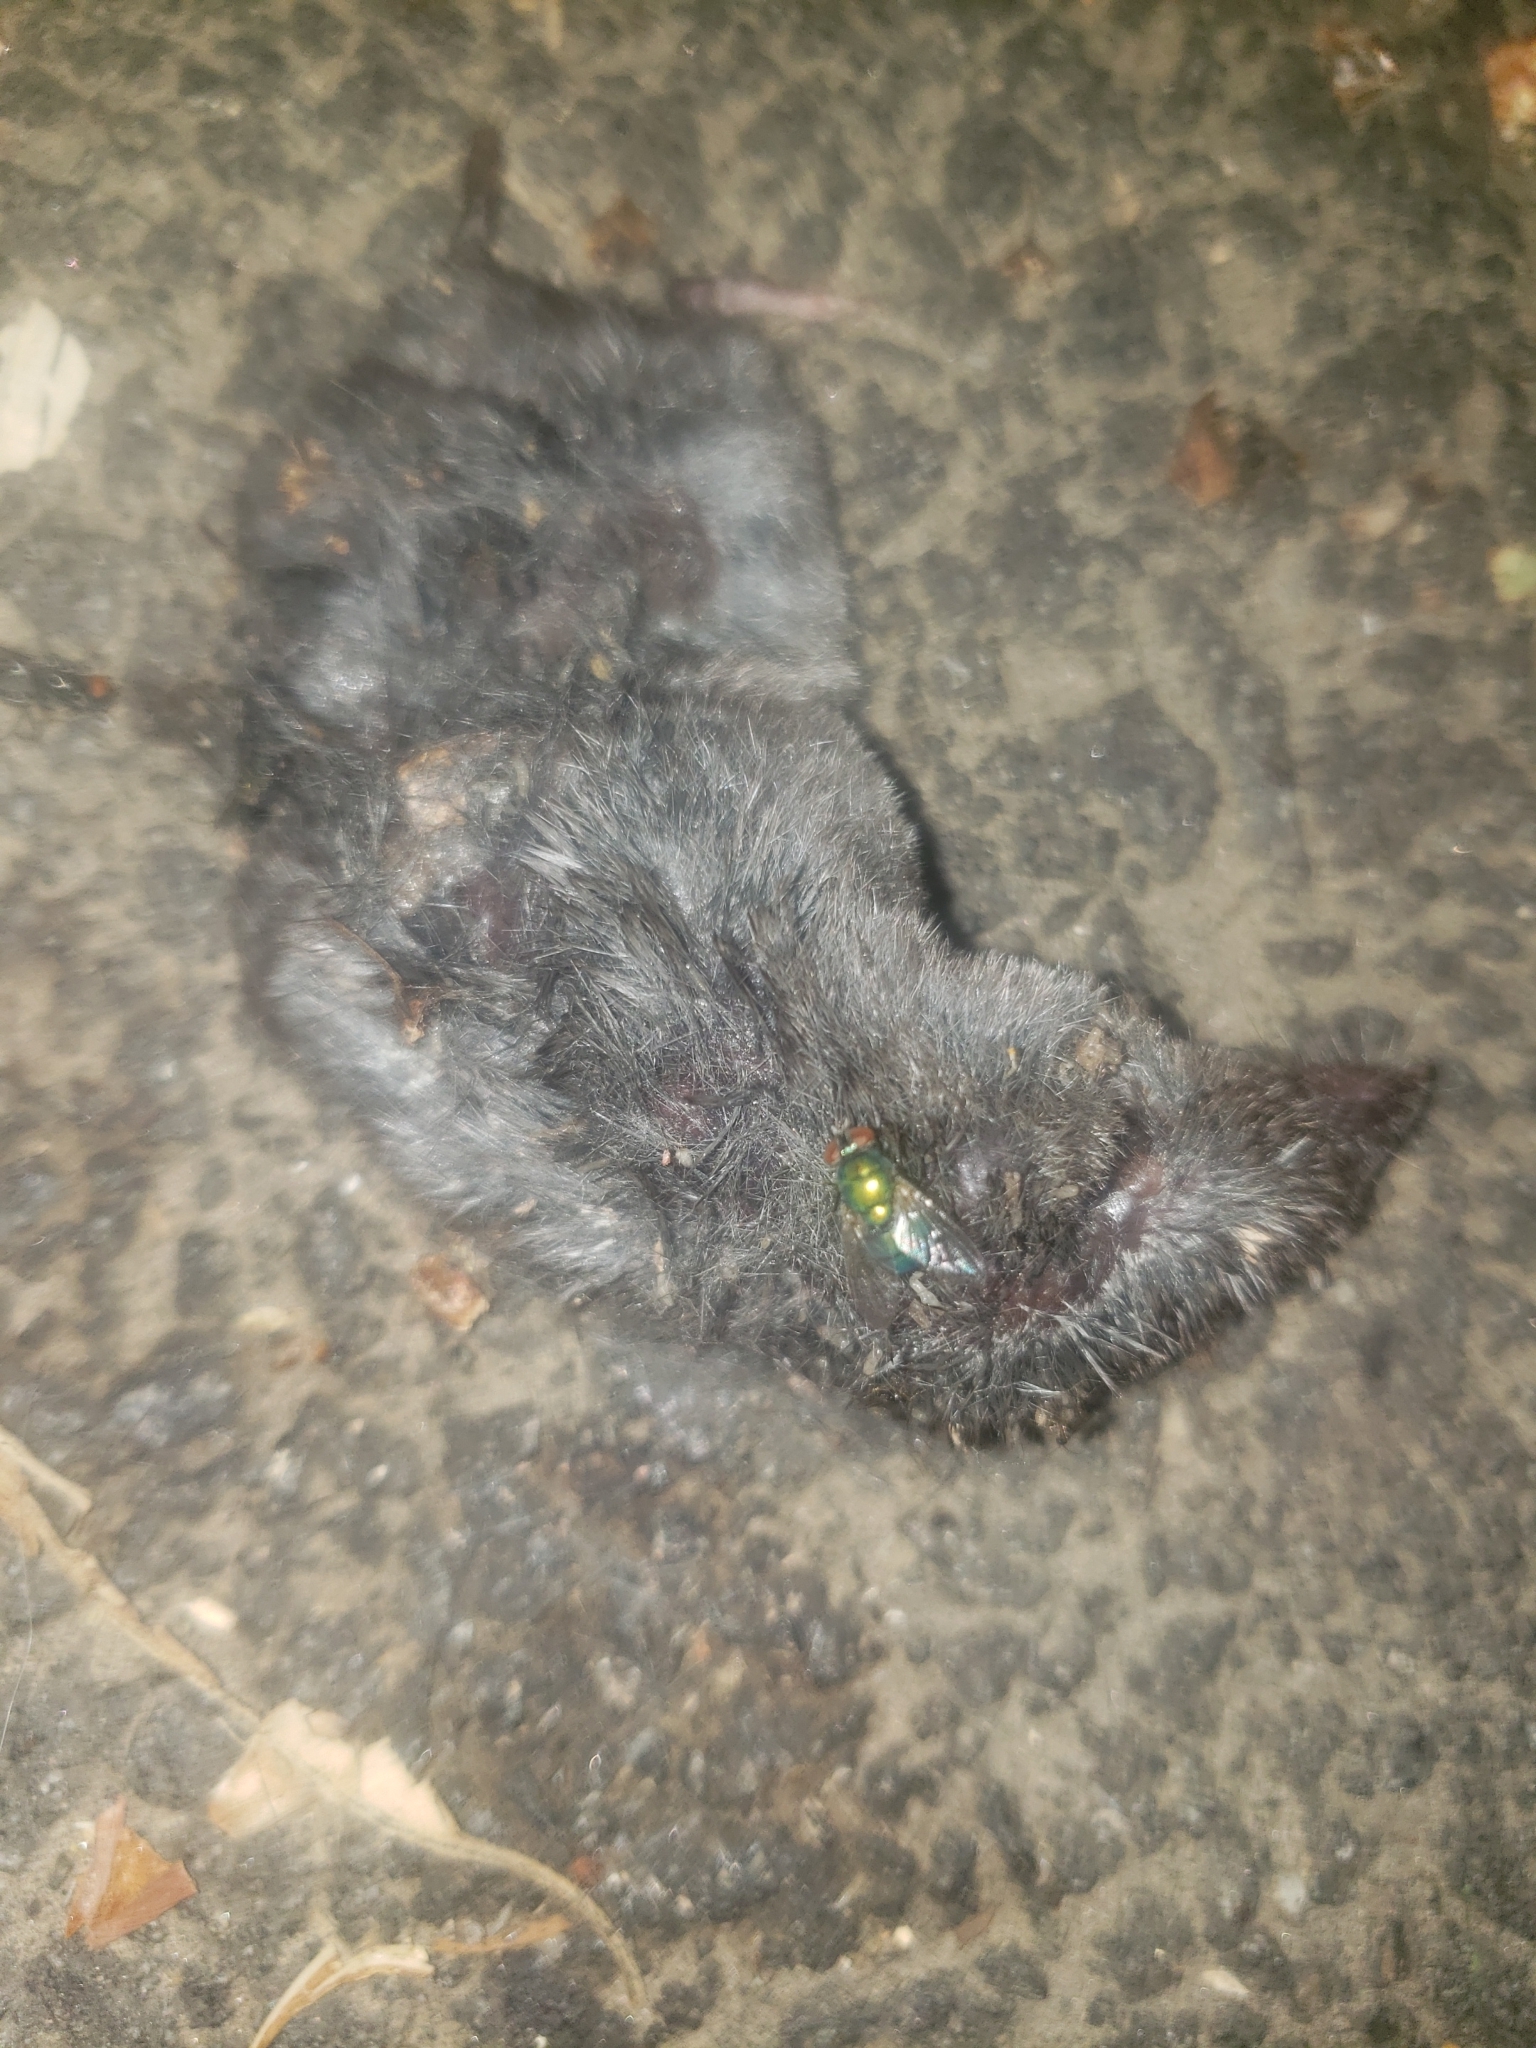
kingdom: Animalia
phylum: Chordata
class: Mammalia
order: Soricomorpha
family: Soricidae
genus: Blarina
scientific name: Blarina brevicauda
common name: Northern short-tailed shrew
